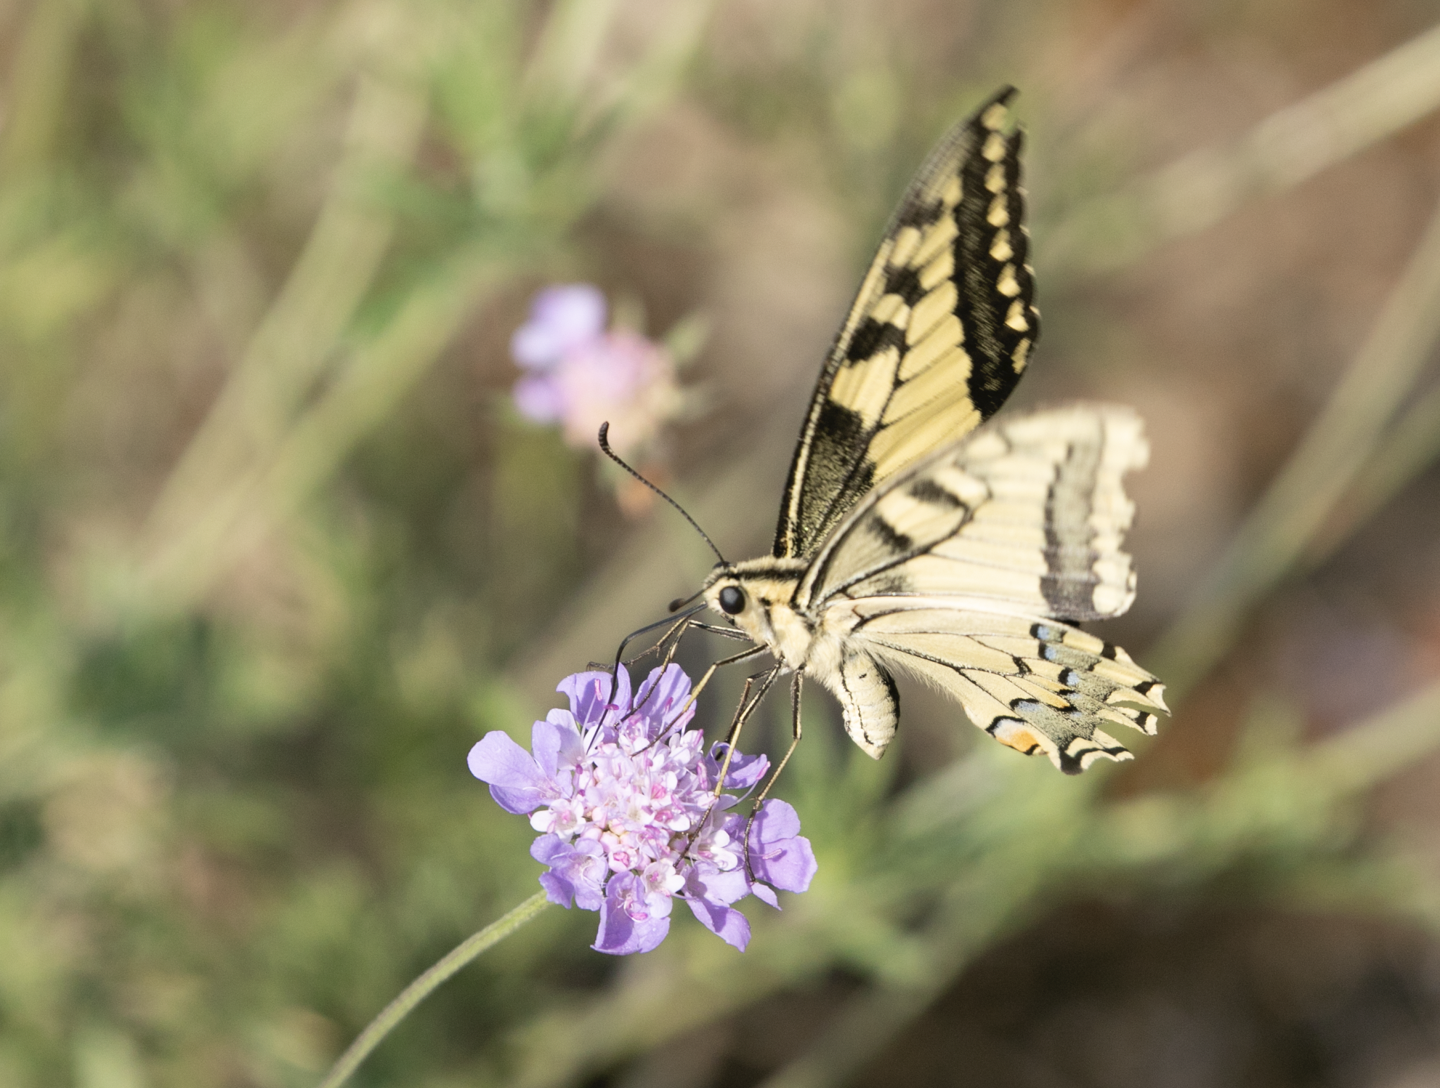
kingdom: Animalia
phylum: Arthropoda
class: Insecta
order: Lepidoptera
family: Papilionidae
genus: Papilio
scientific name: Papilio machaon
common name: Swallowtail
